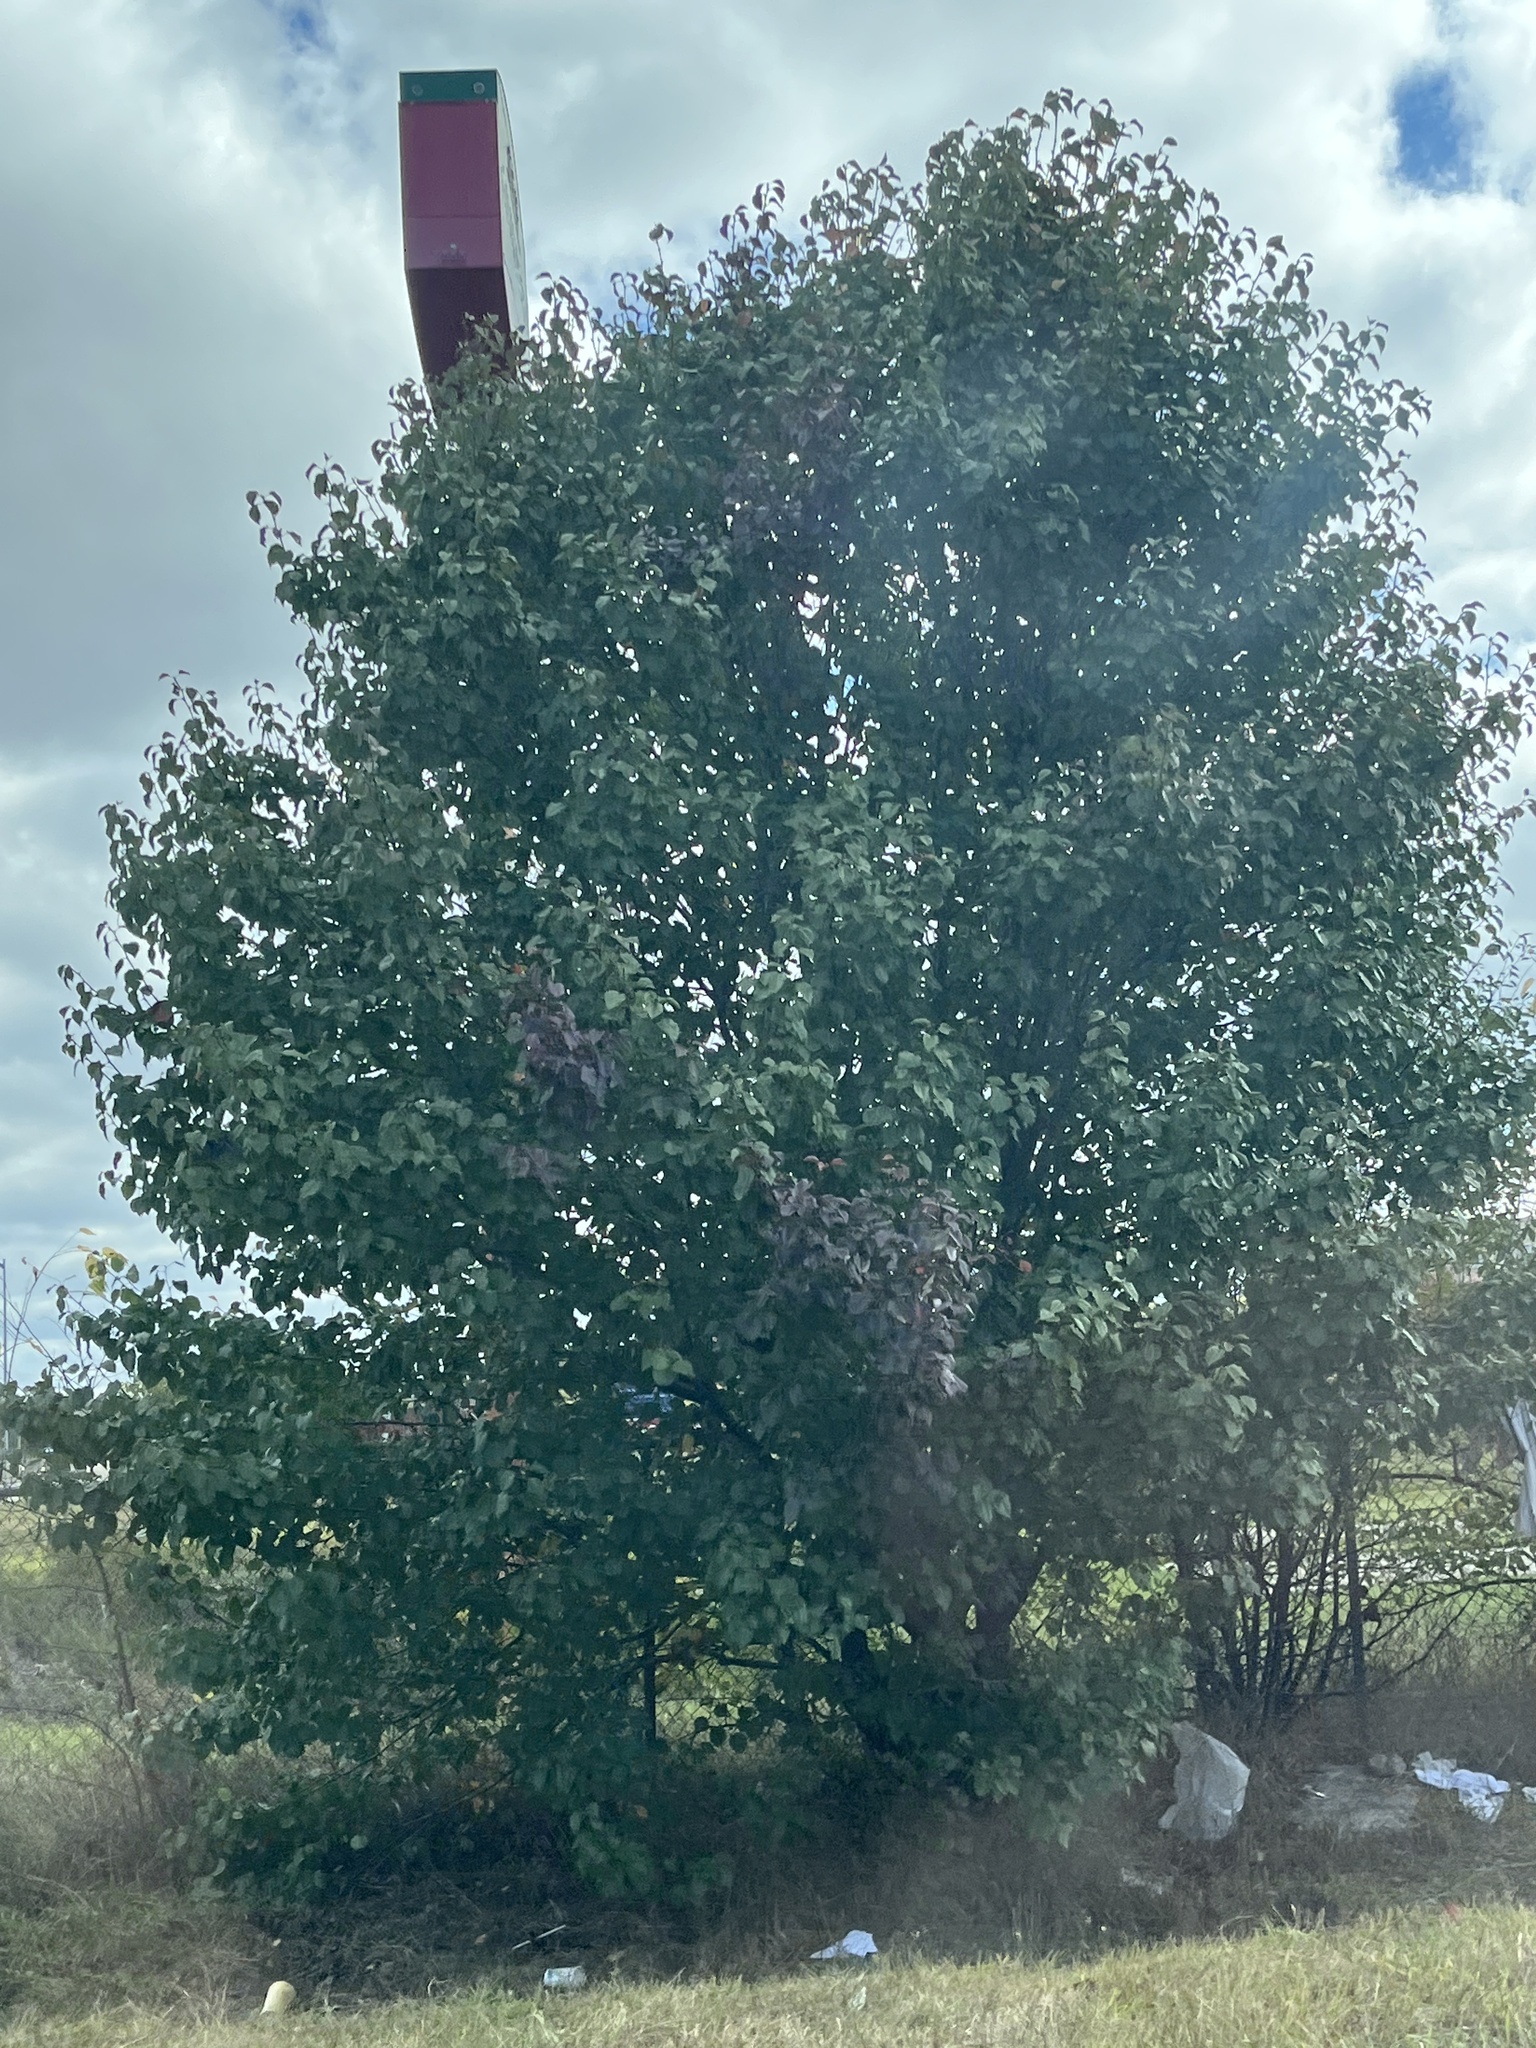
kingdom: Plantae
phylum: Tracheophyta
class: Magnoliopsida
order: Rosales
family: Rosaceae
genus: Pyrus
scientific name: Pyrus calleryana
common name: Callery pear
